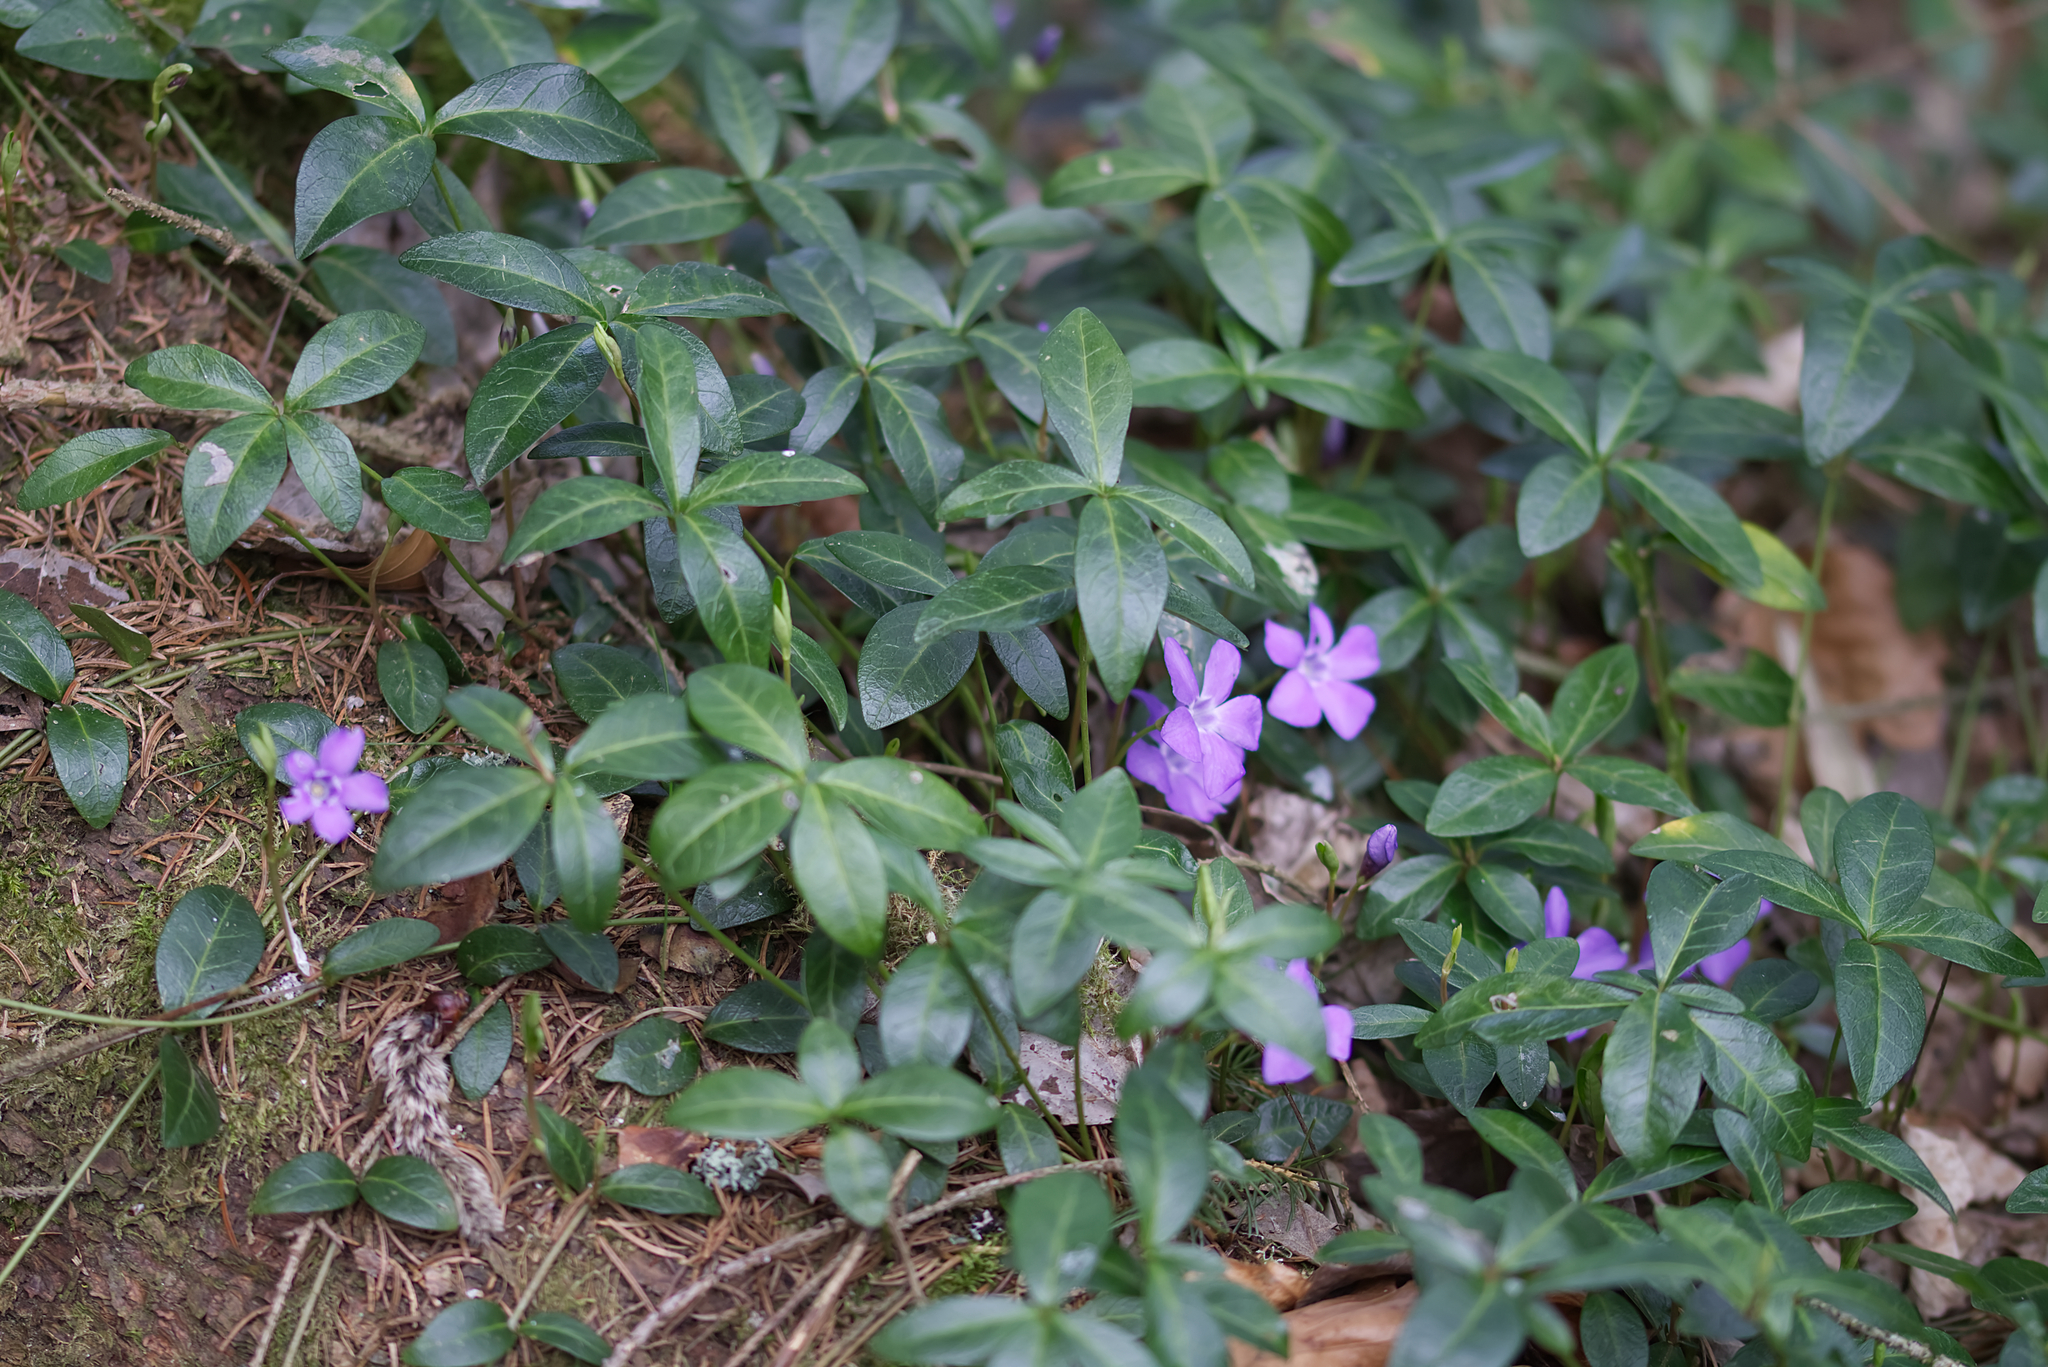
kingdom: Plantae
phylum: Tracheophyta
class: Magnoliopsida
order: Gentianales
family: Apocynaceae
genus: Vinca
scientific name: Vinca minor
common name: Lesser periwinkle
